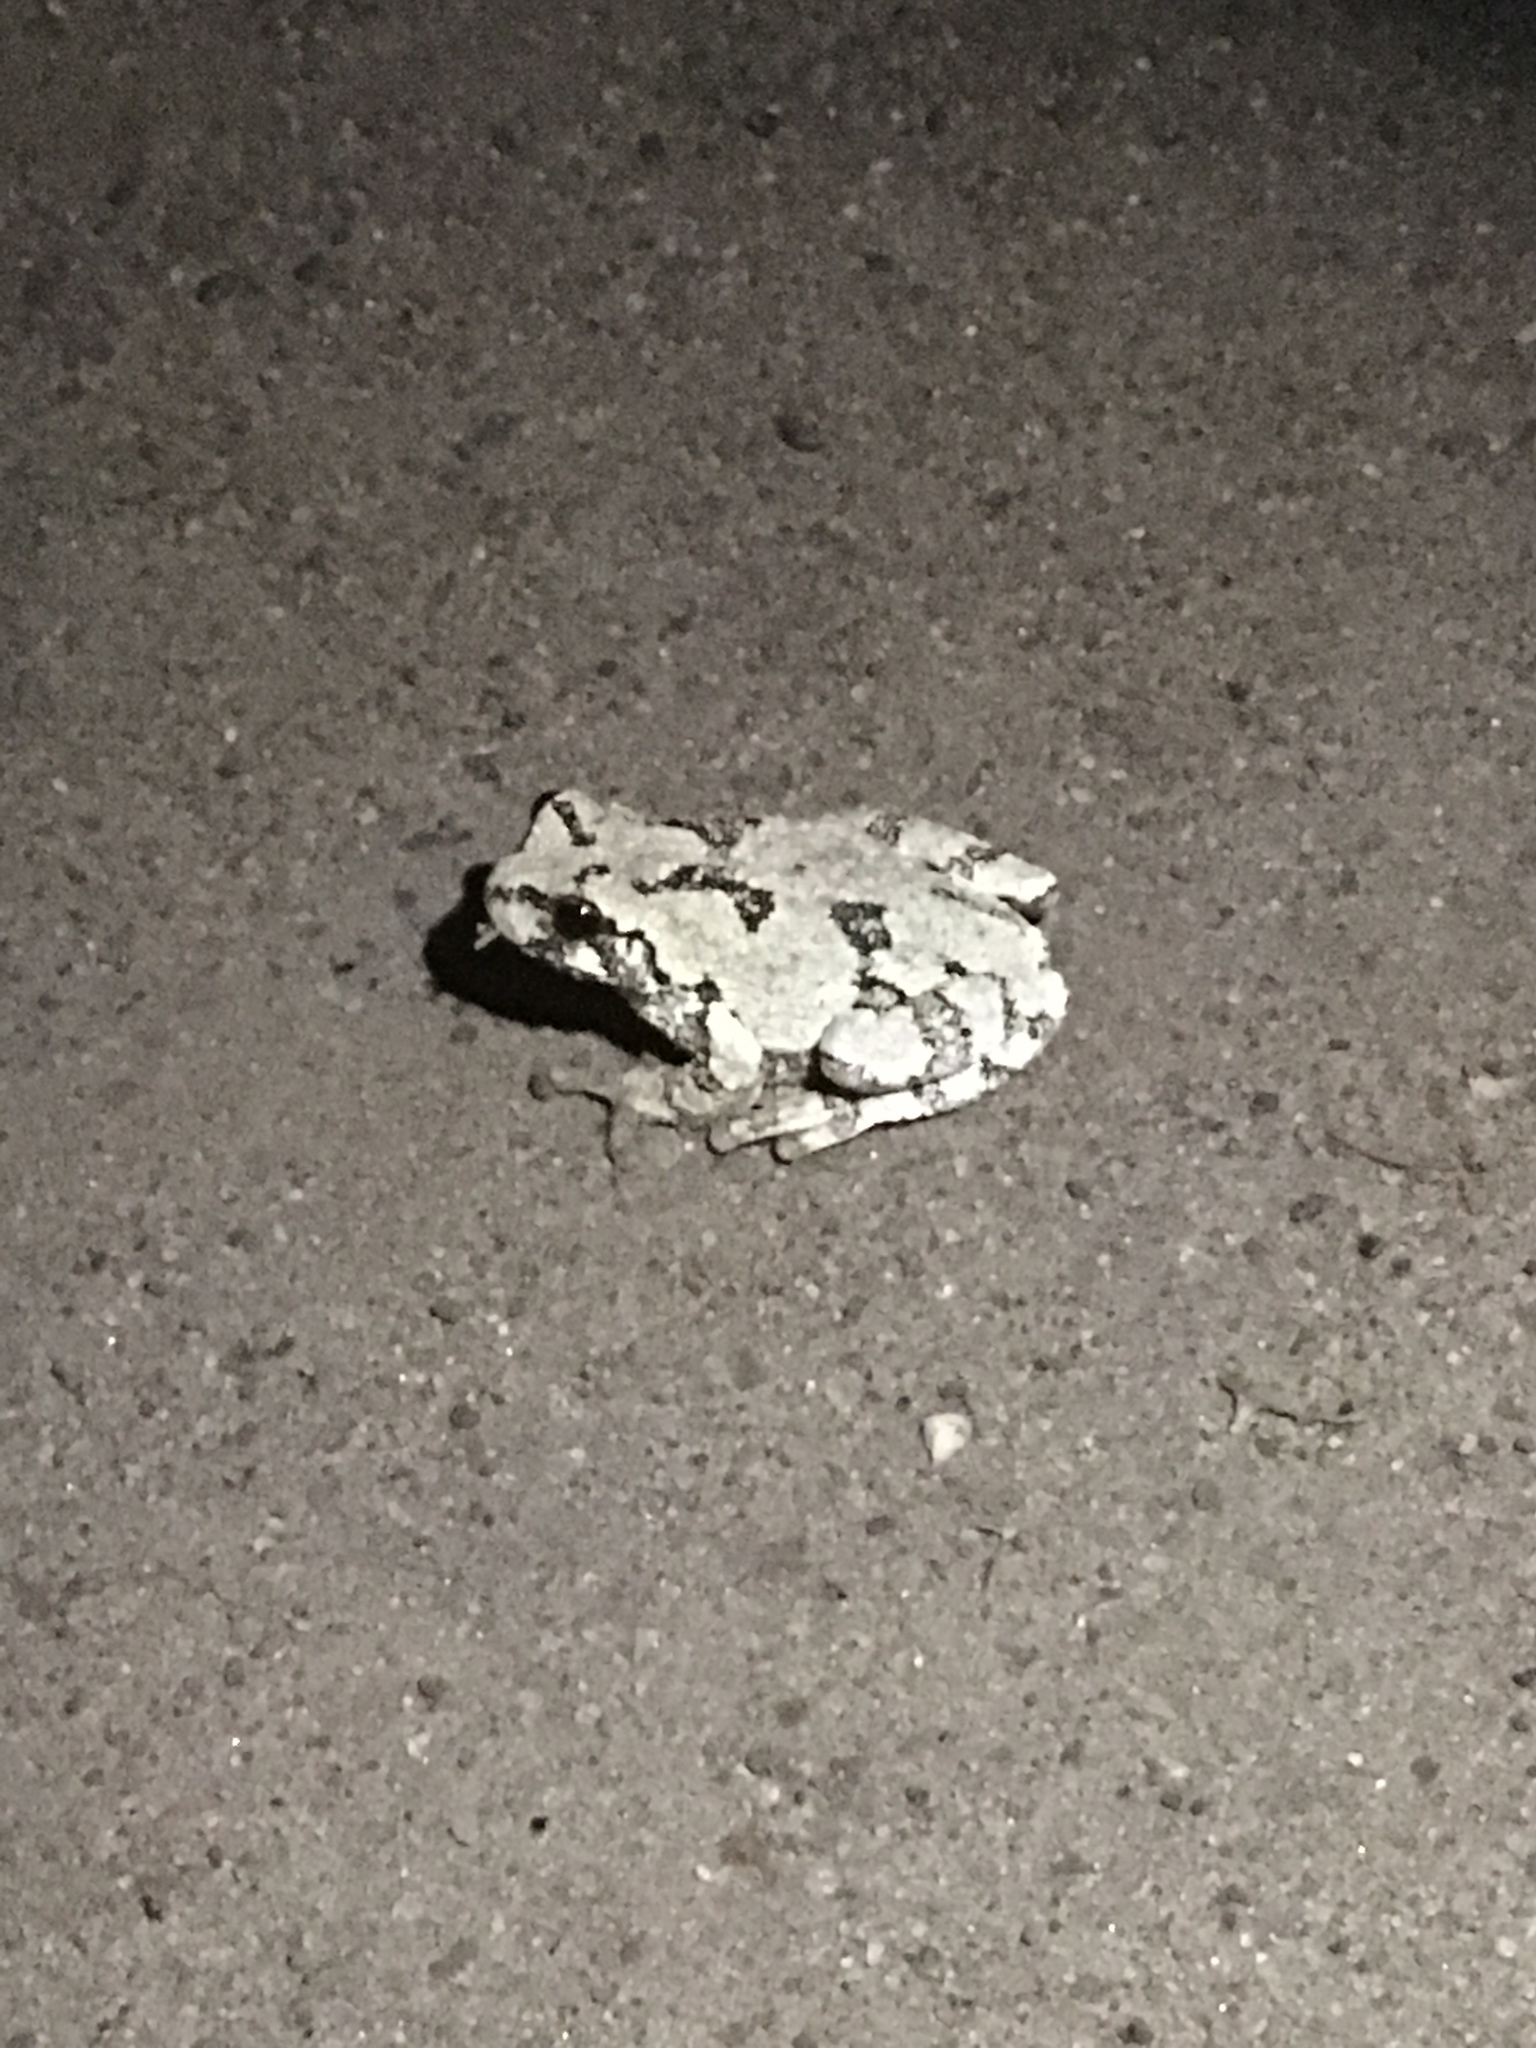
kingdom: Animalia
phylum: Chordata
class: Amphibia
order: Anura
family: Hylidae
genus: Dryophytes
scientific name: Dryophytes versicolor
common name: Gray treefrog
